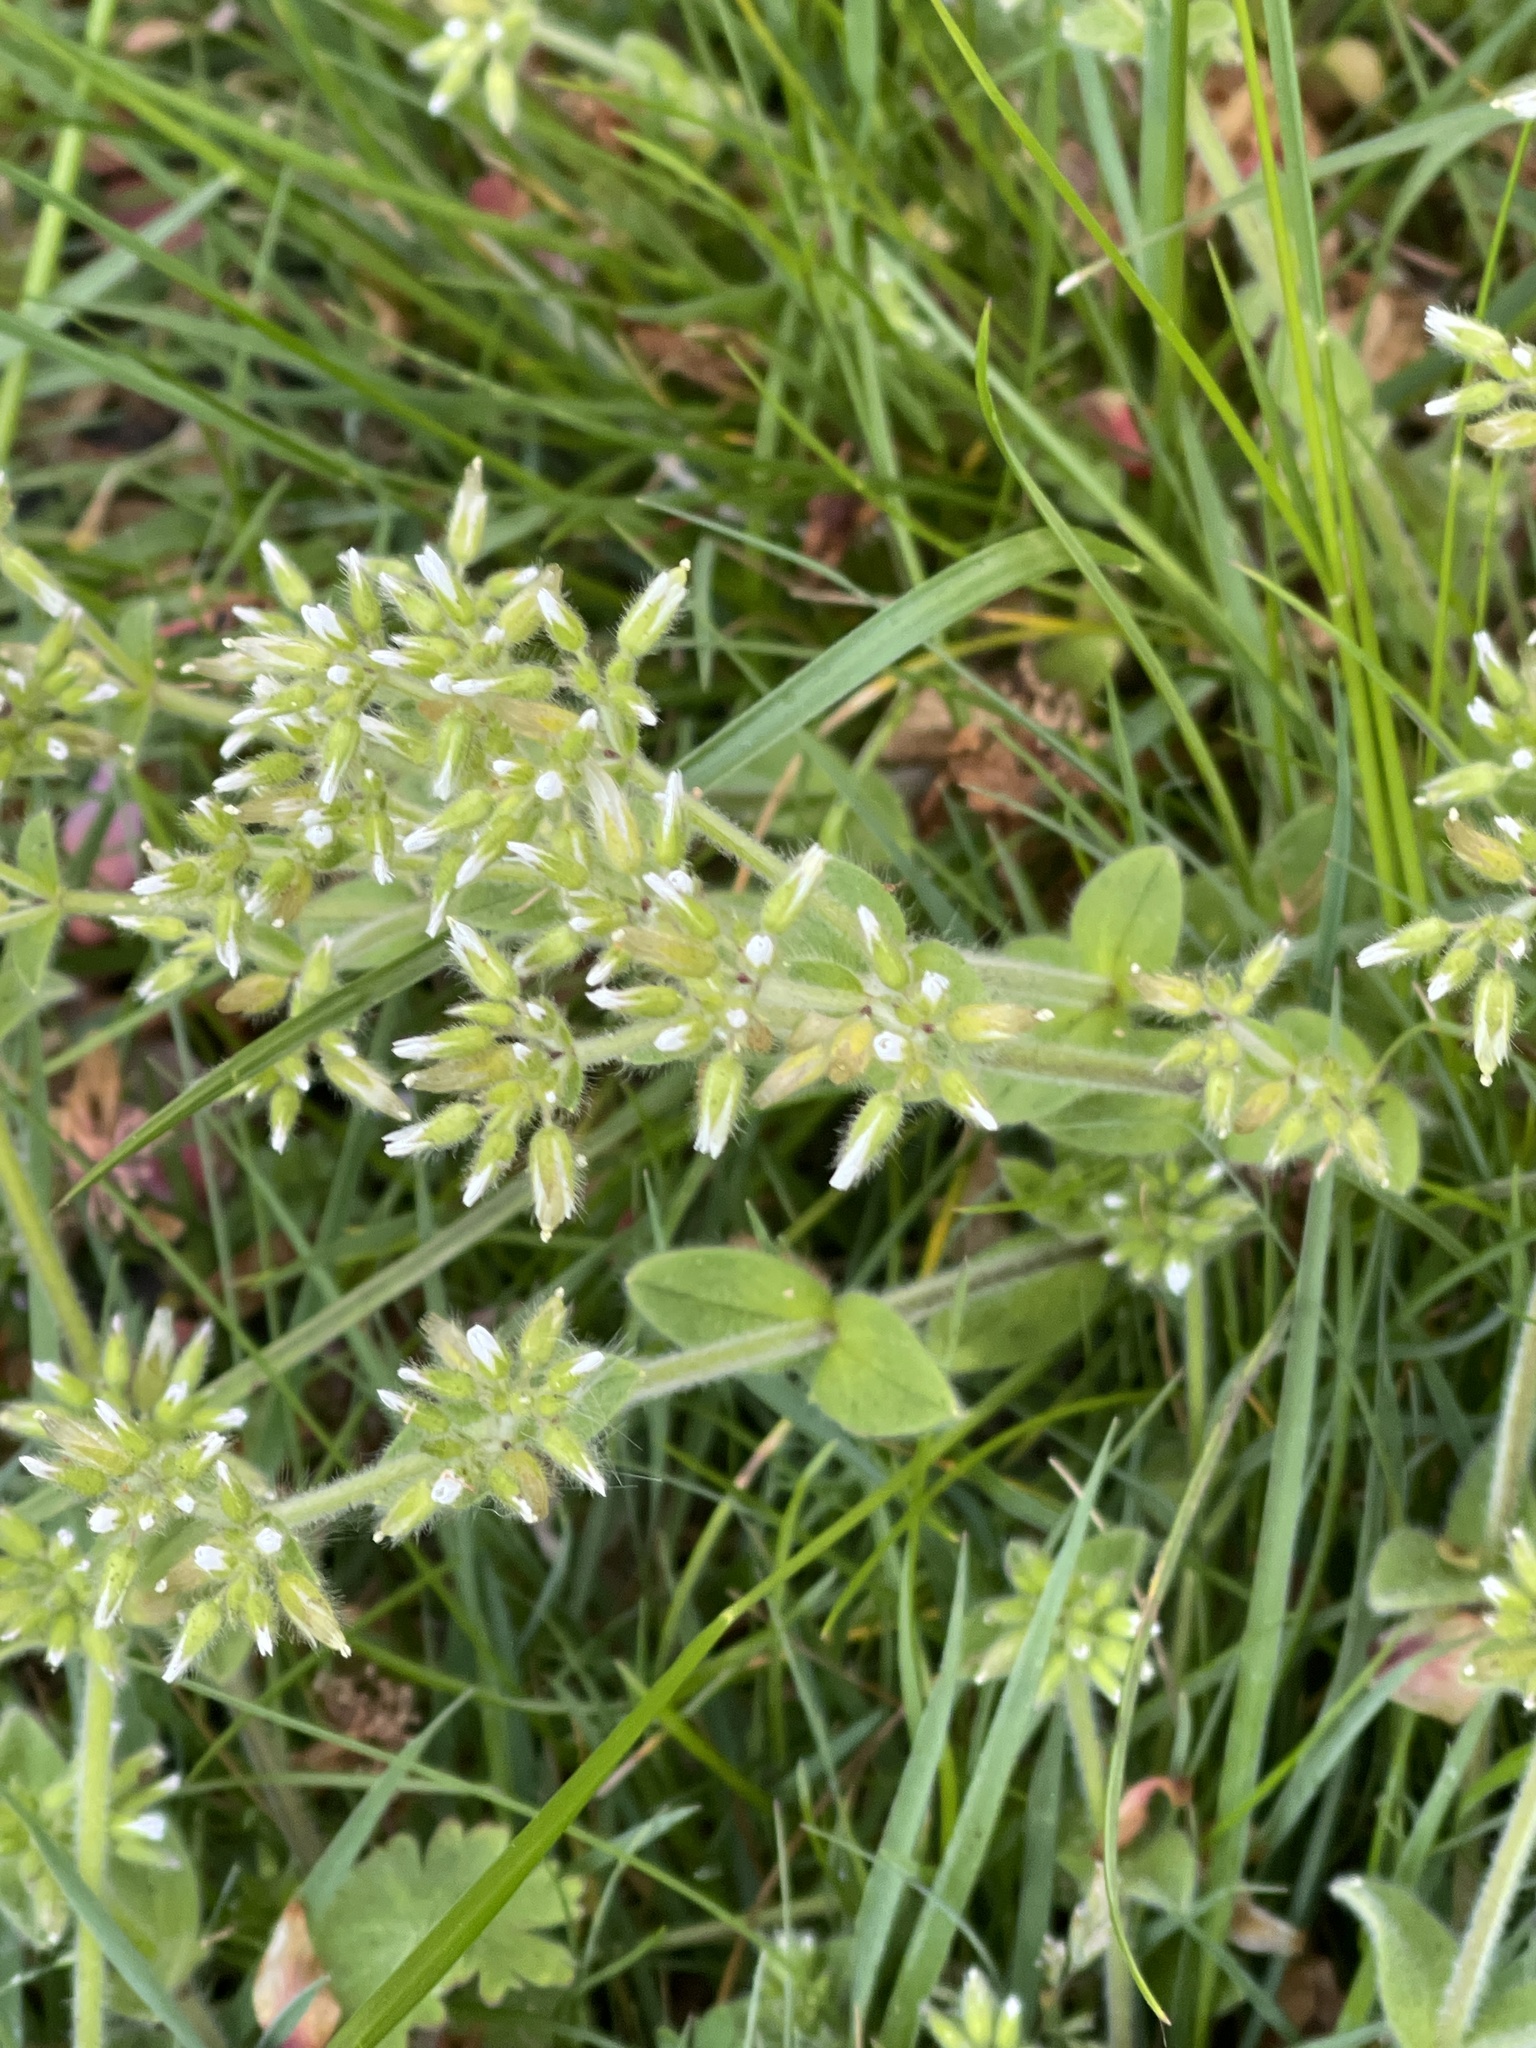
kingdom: Plantae
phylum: Tracheophyta
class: Magnoliopsida
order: Caryophyllales
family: Caryophyllaceae
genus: Cerastium
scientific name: Cerastium glomeratum
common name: Sticky chickweed
